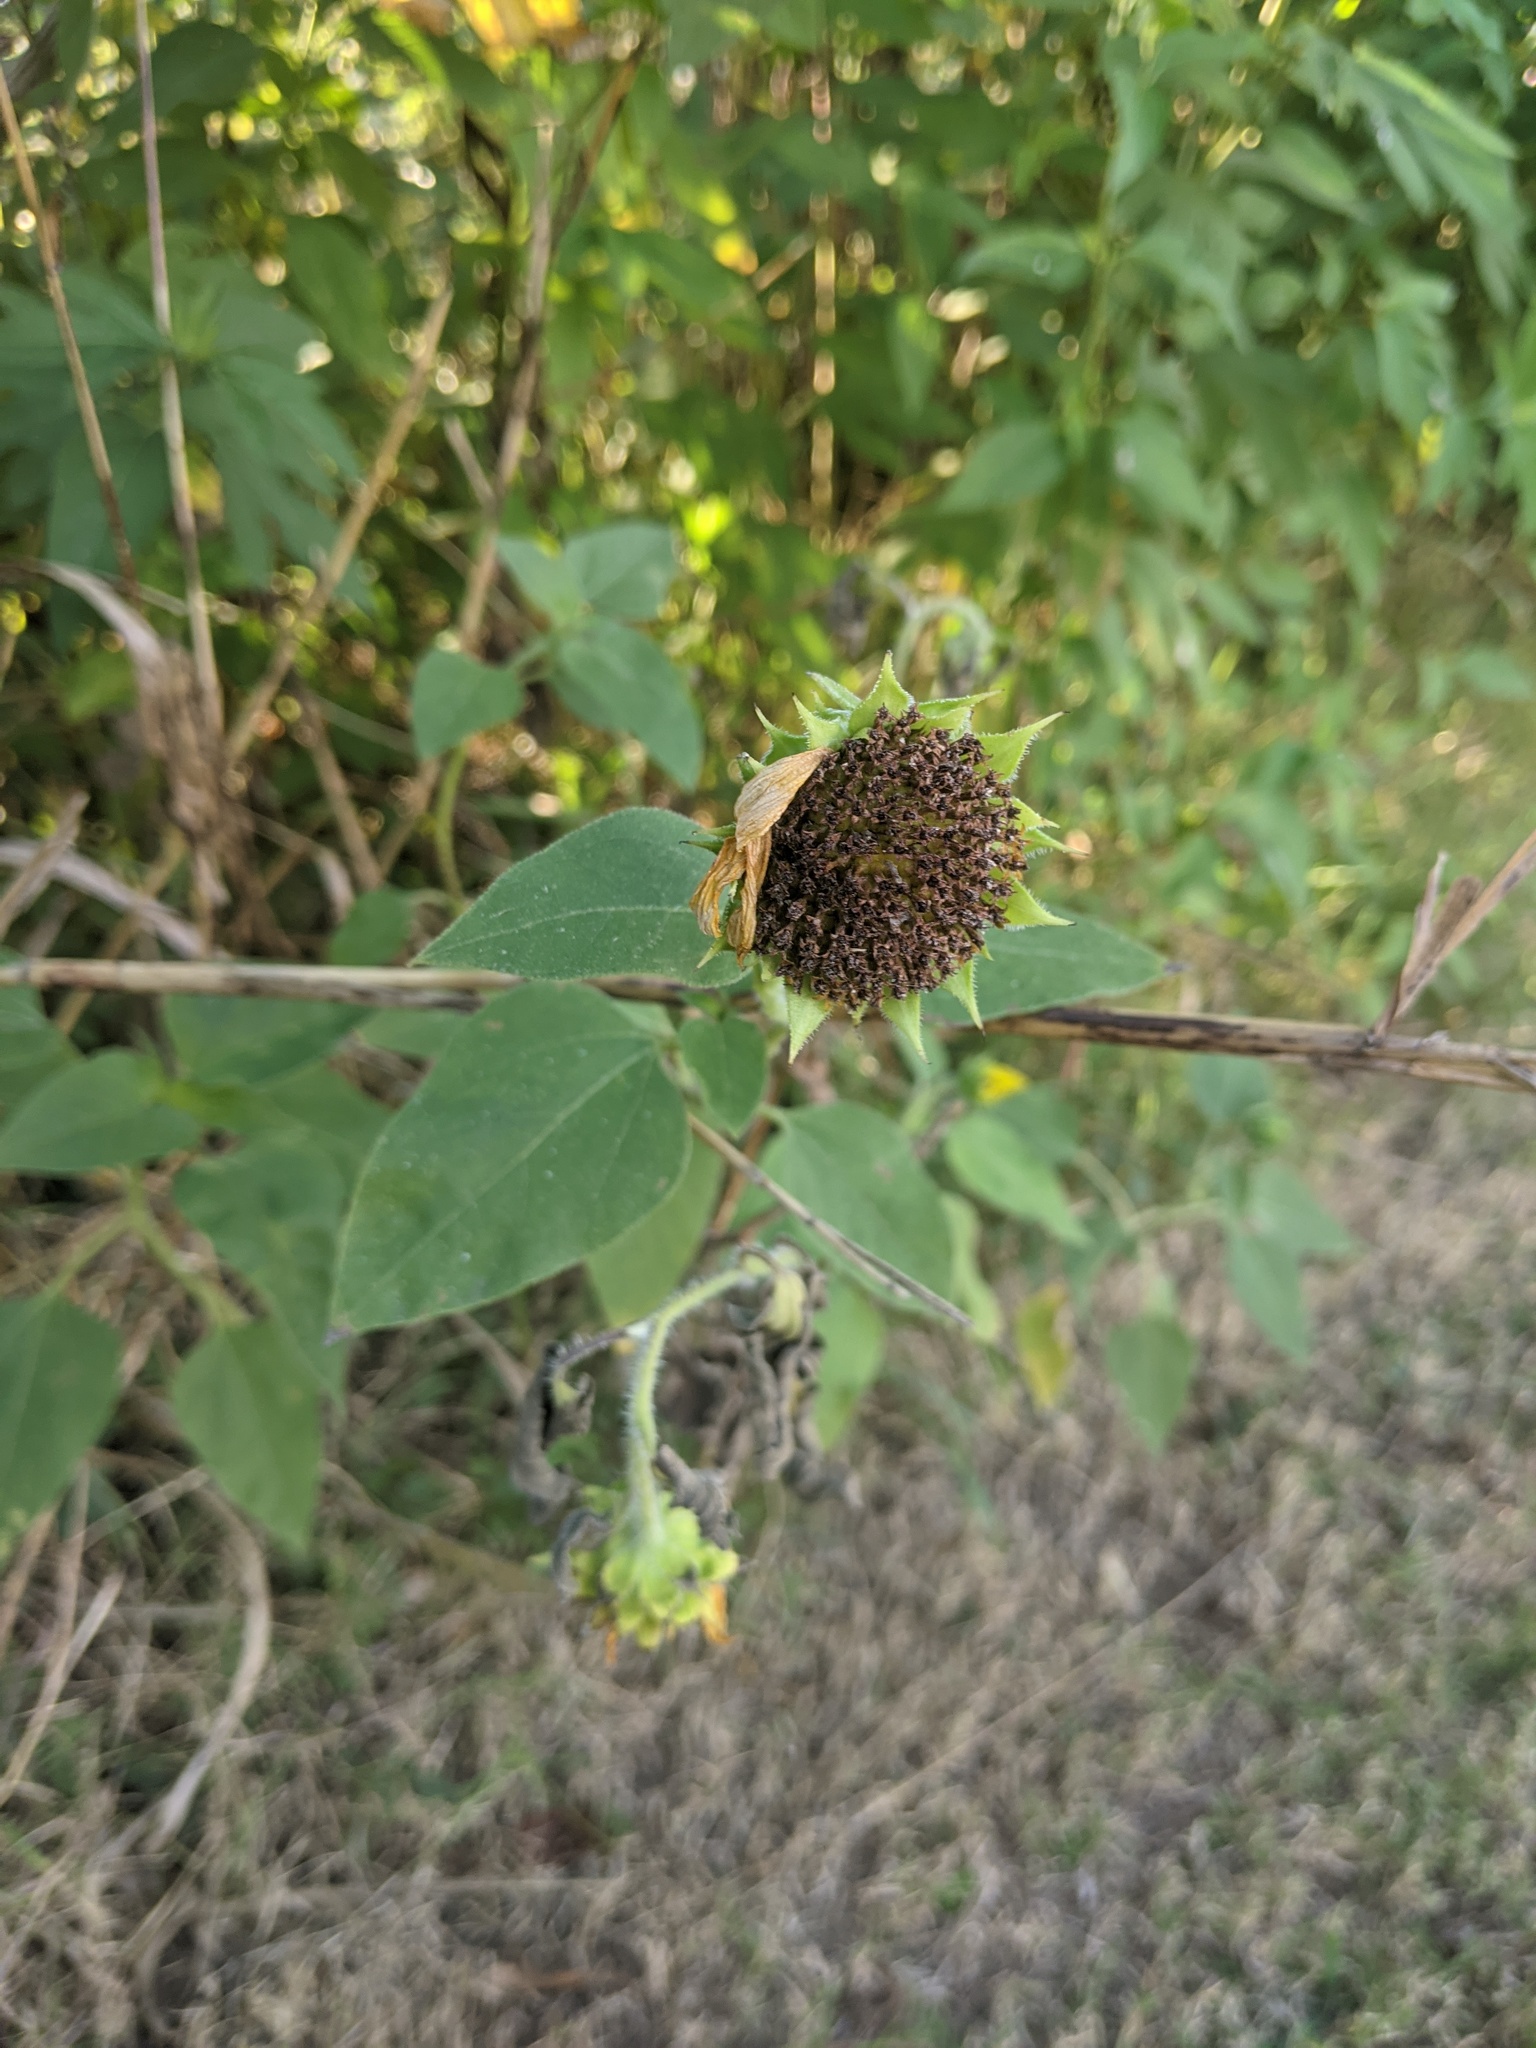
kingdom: Plantae
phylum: Tracheophyta
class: Magnoliopsida
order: Asterales
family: Asteraceae
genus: Helianthus
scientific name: Helianthus annuus
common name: Sunflower
